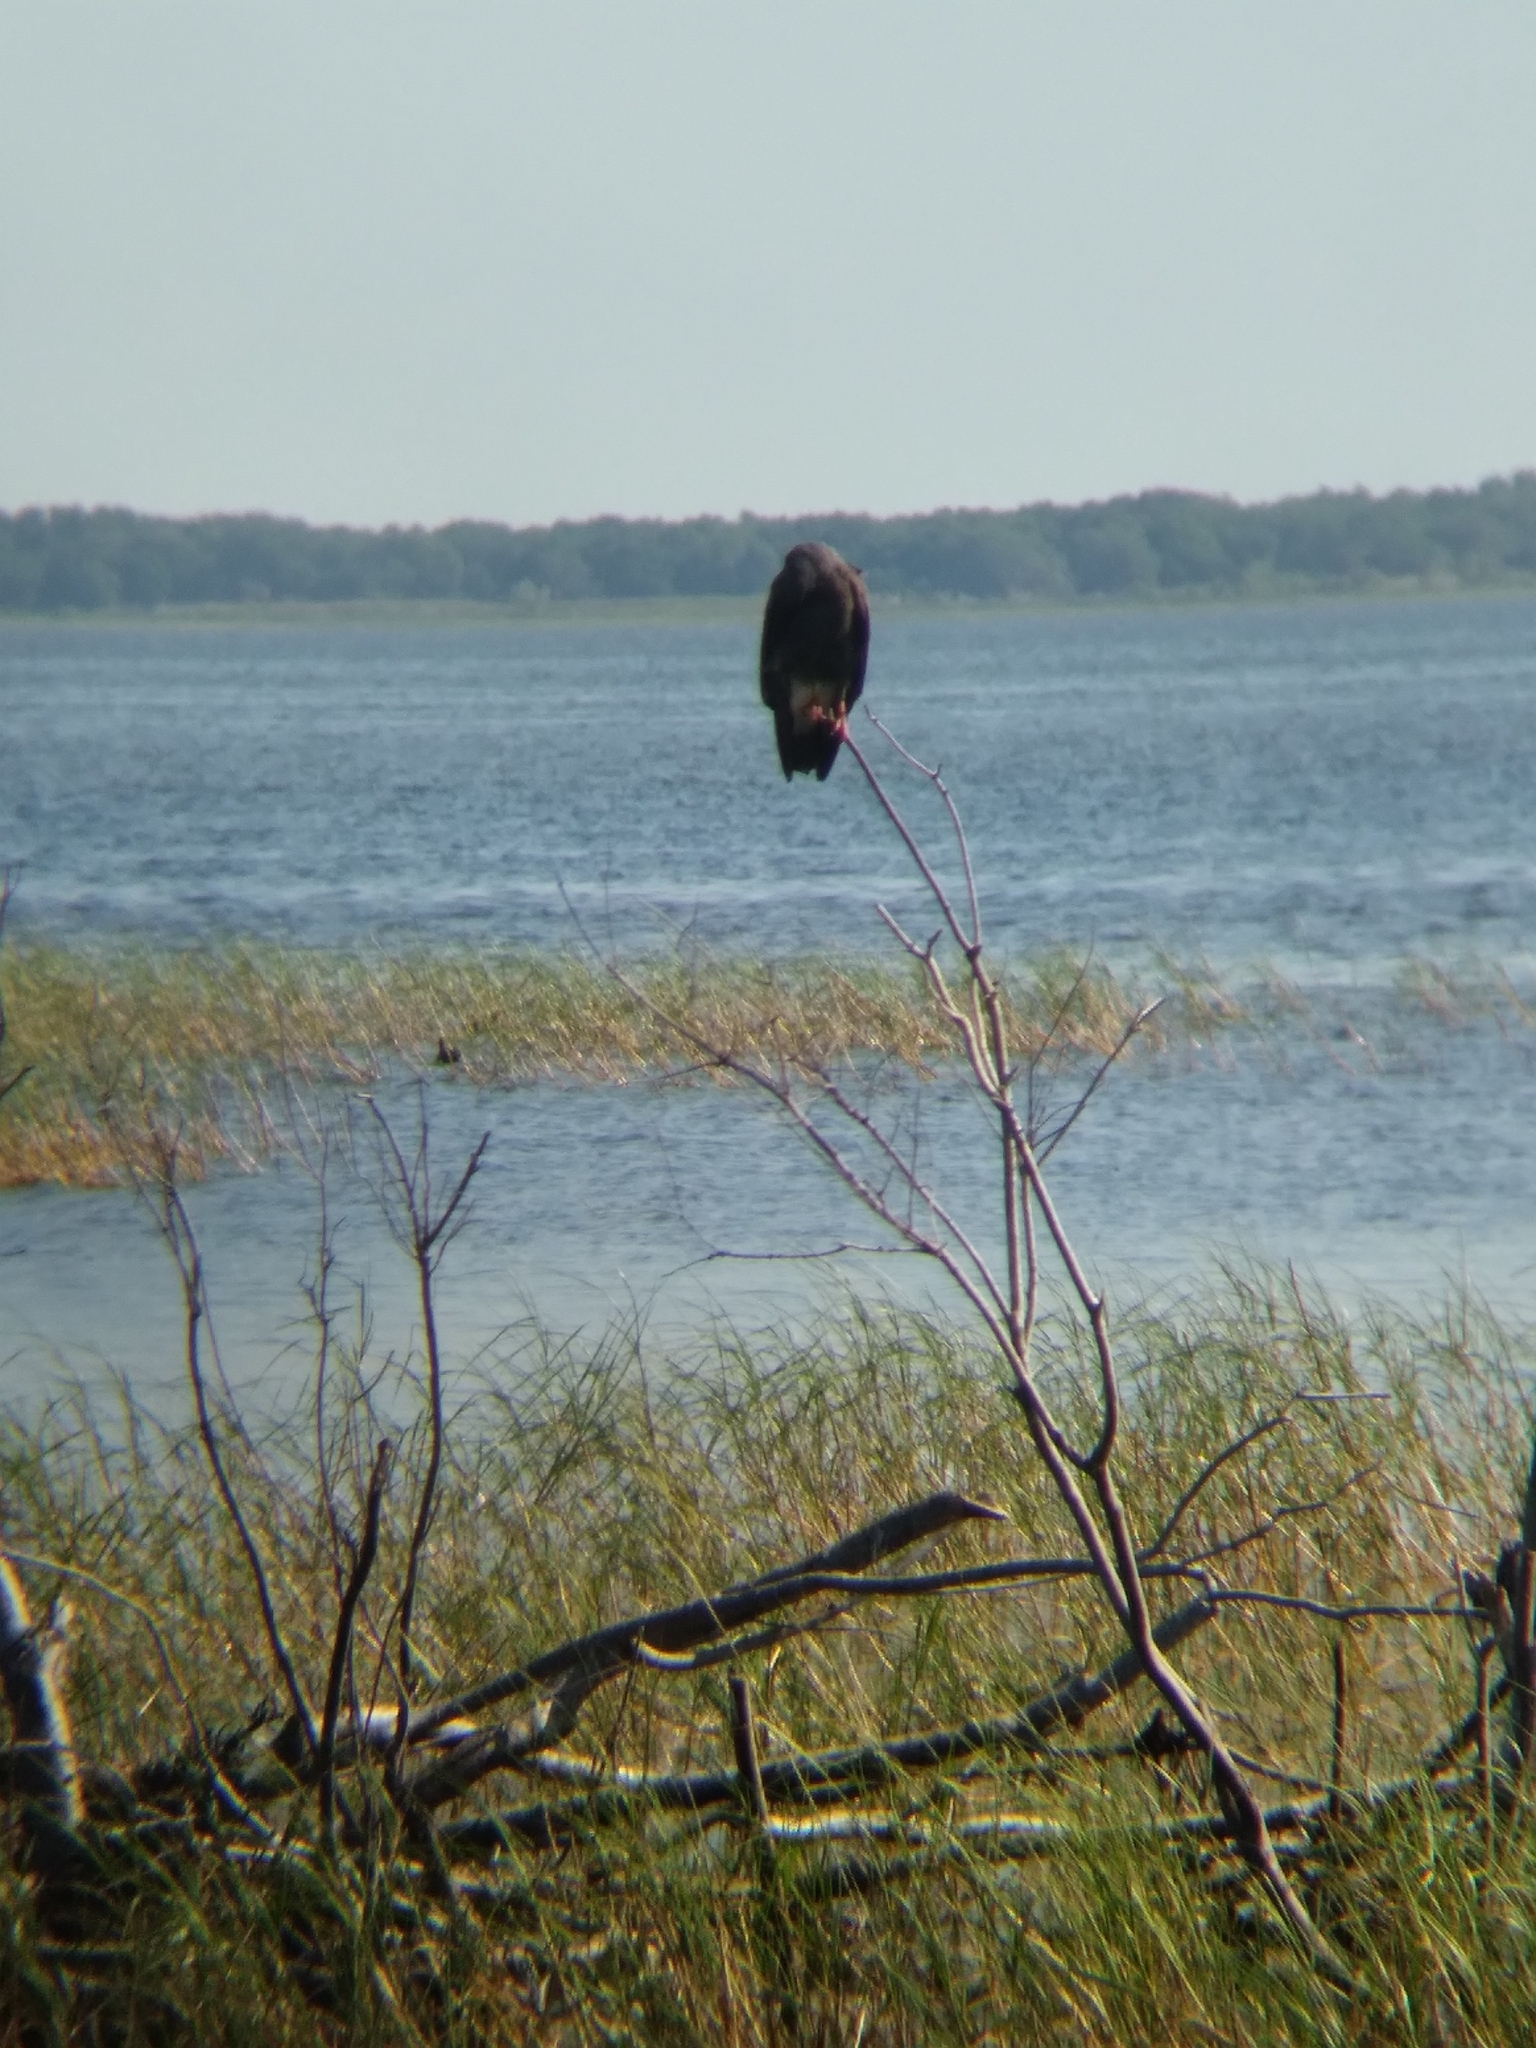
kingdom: Animalia
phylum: Chordata
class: Aves
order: Accipitriformes
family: Accipitridae
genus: Rostrhamus
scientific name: Rostrhamus sociabilis
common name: Snail kite
